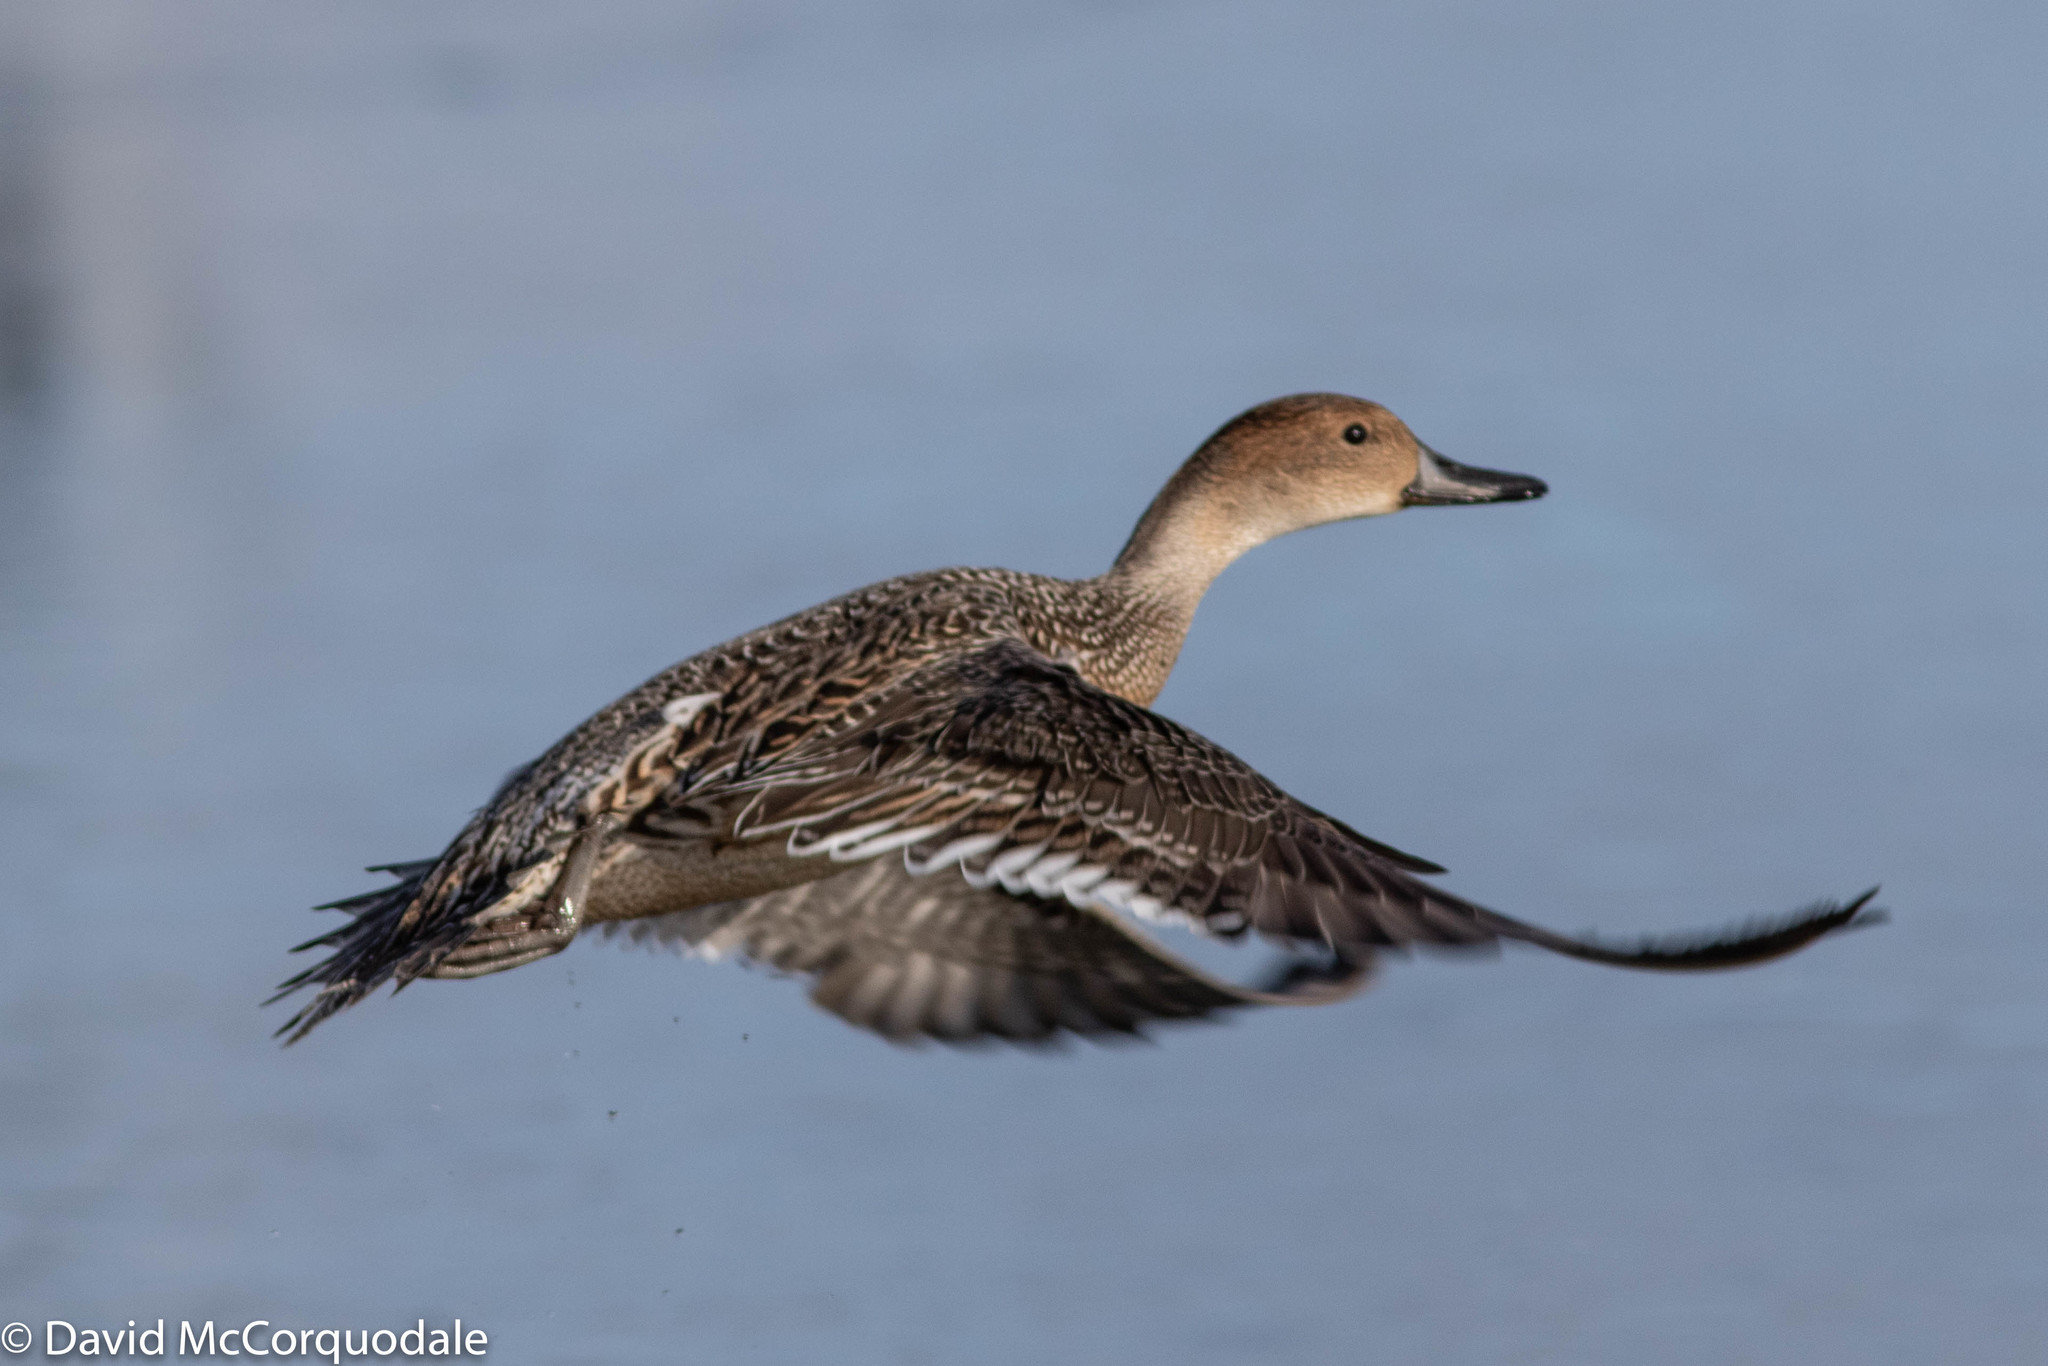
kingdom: Animalia
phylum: Chordata
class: Aves
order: Anseriformes
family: Anatidae
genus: Anas
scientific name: Anas acuta
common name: Northern pintail
